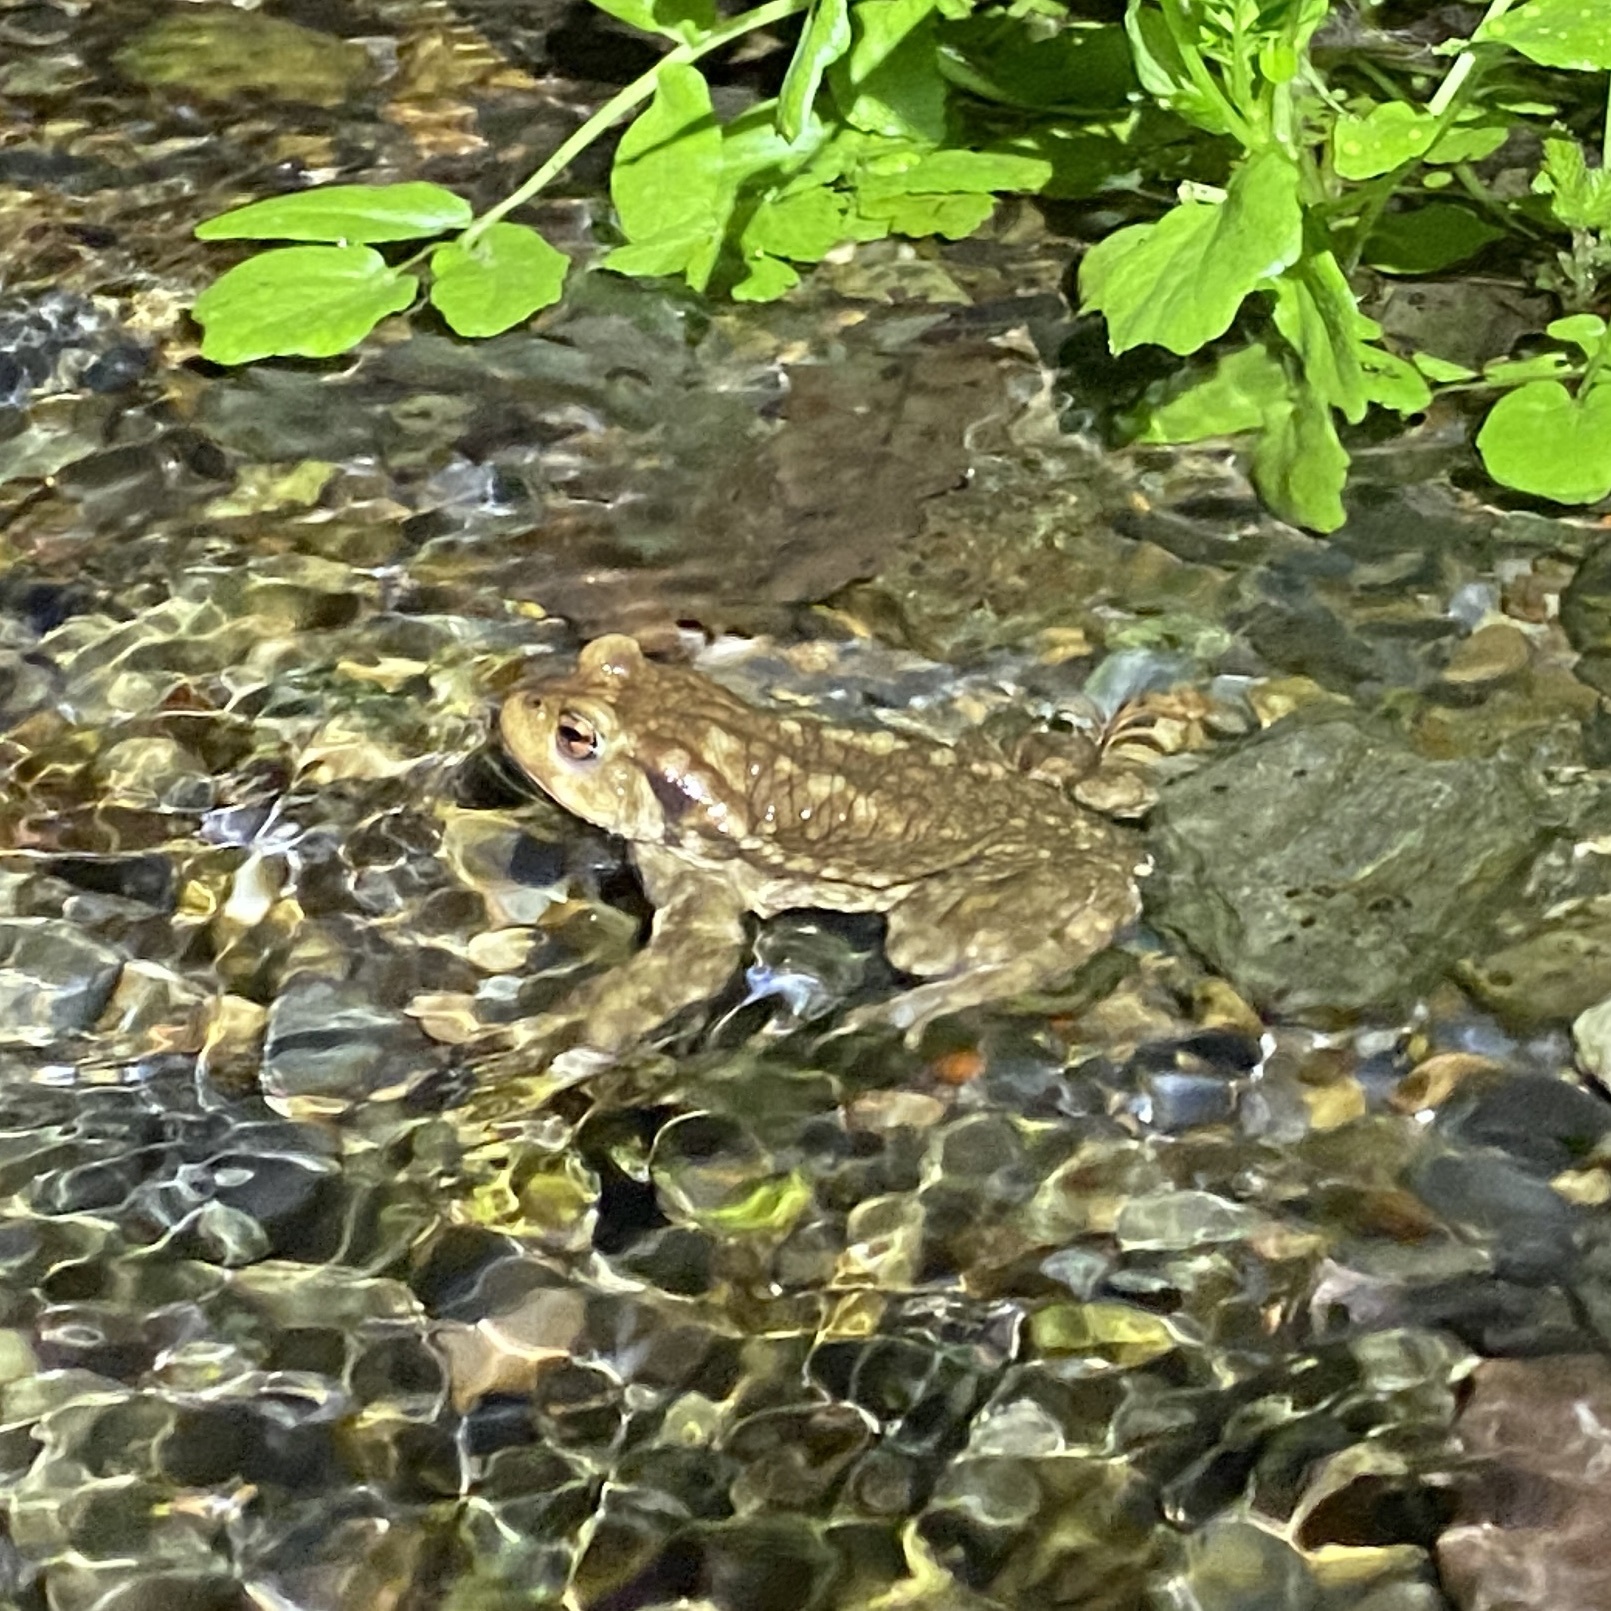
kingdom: Animalia
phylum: Chordata
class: Amphibia
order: Anura
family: Bufonidae
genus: Bufo
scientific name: Bufo spinosus
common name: Western common toad
